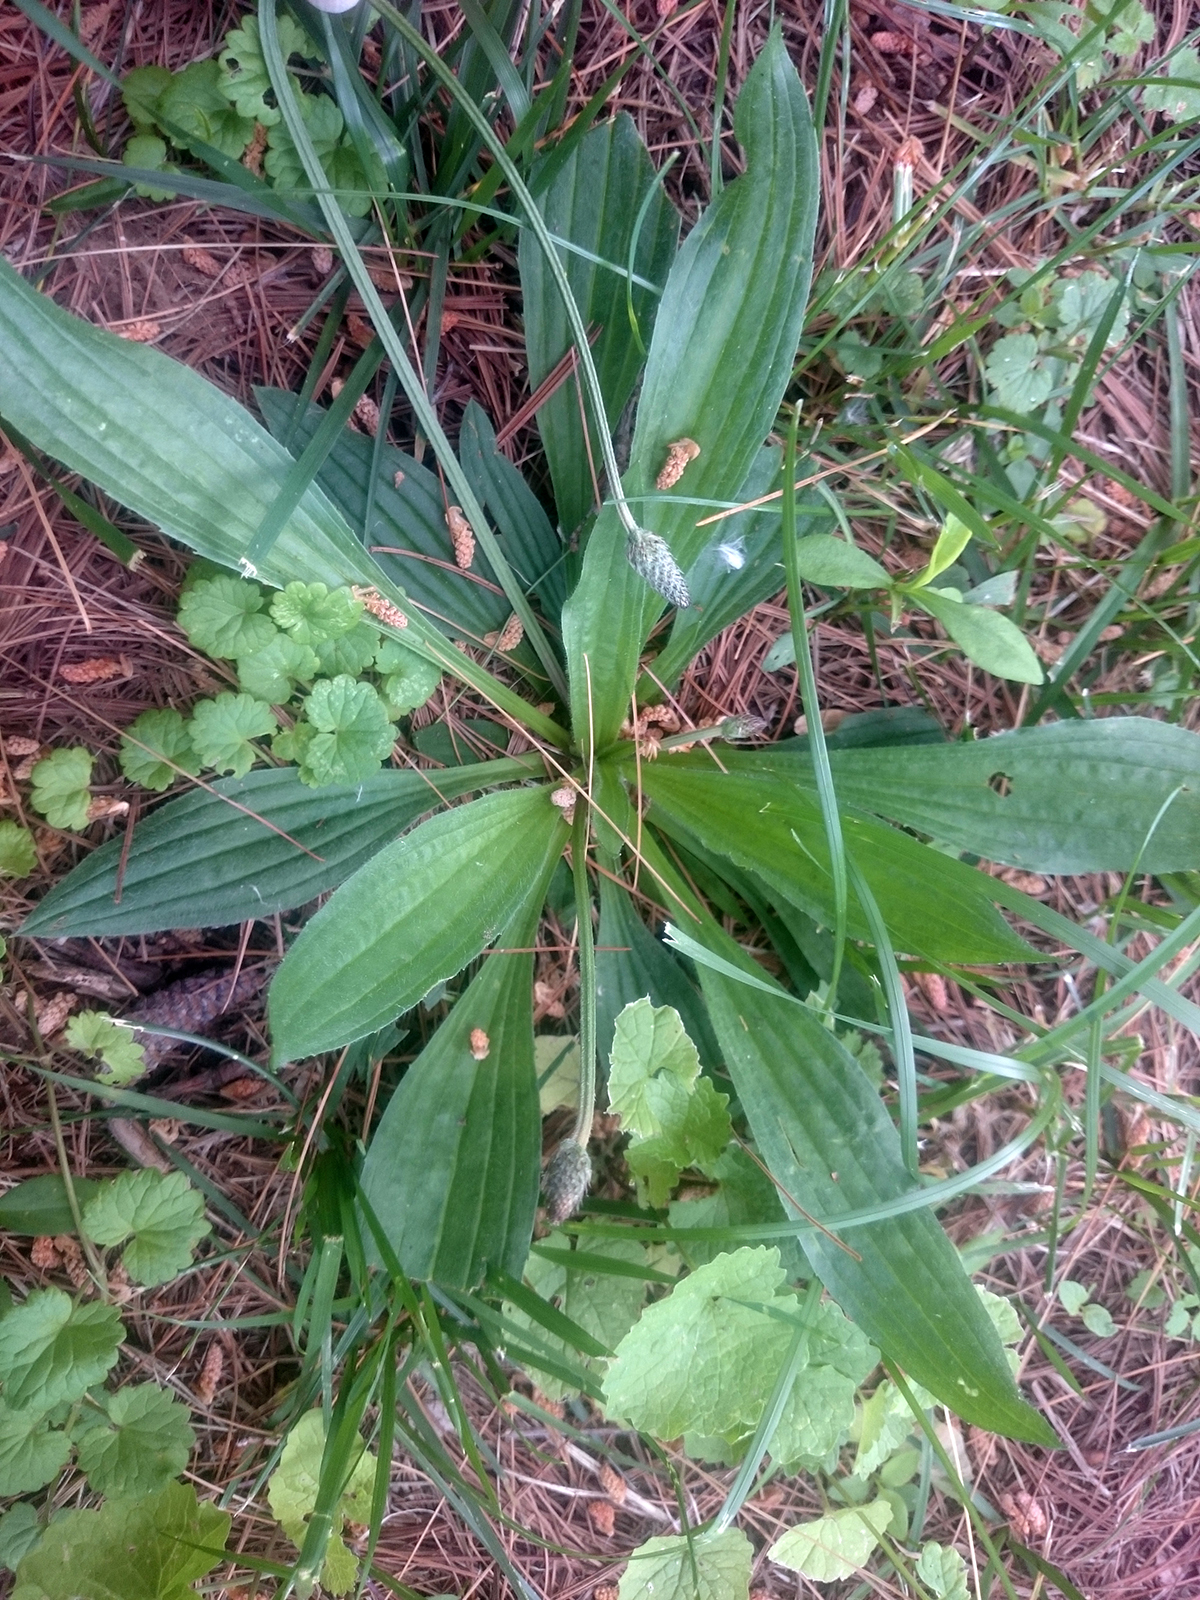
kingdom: Plantae
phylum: Tracheophyta
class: Magnoliopsida
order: Lamiales
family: Plantaginaceae
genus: Plantago
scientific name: Plantago lanceolata
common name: Ribwort plantain
